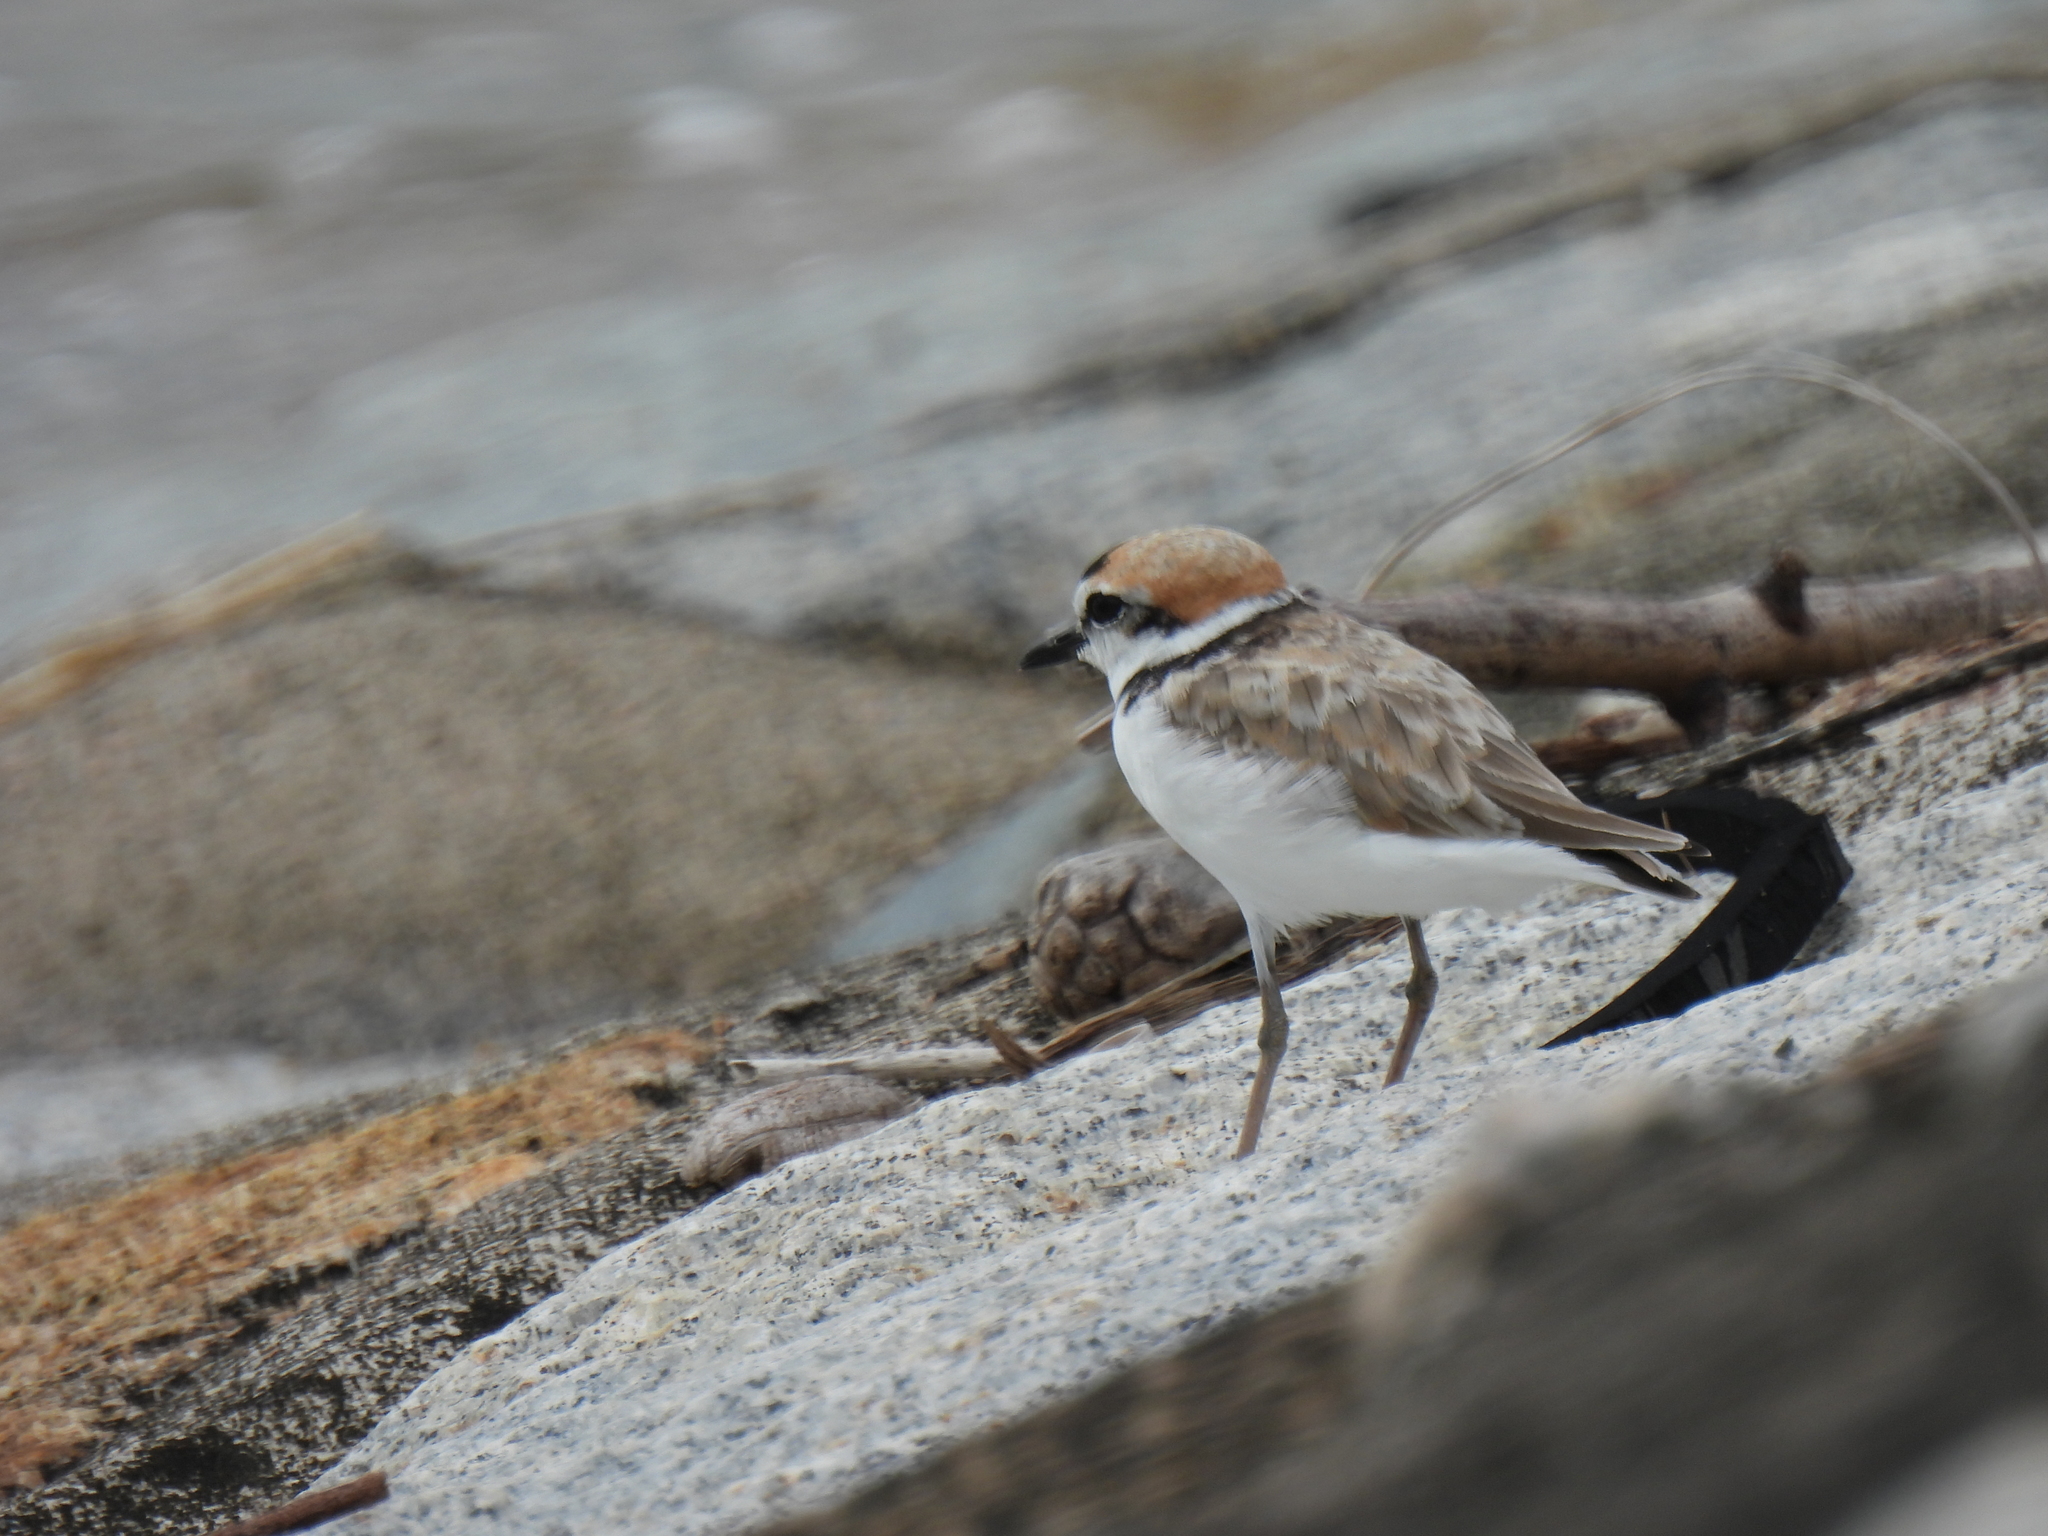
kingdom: Animalia
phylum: Chordata
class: Aves
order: Charadriiformes
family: Charadriidae
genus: Anarhynchus
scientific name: Anarhynchus
